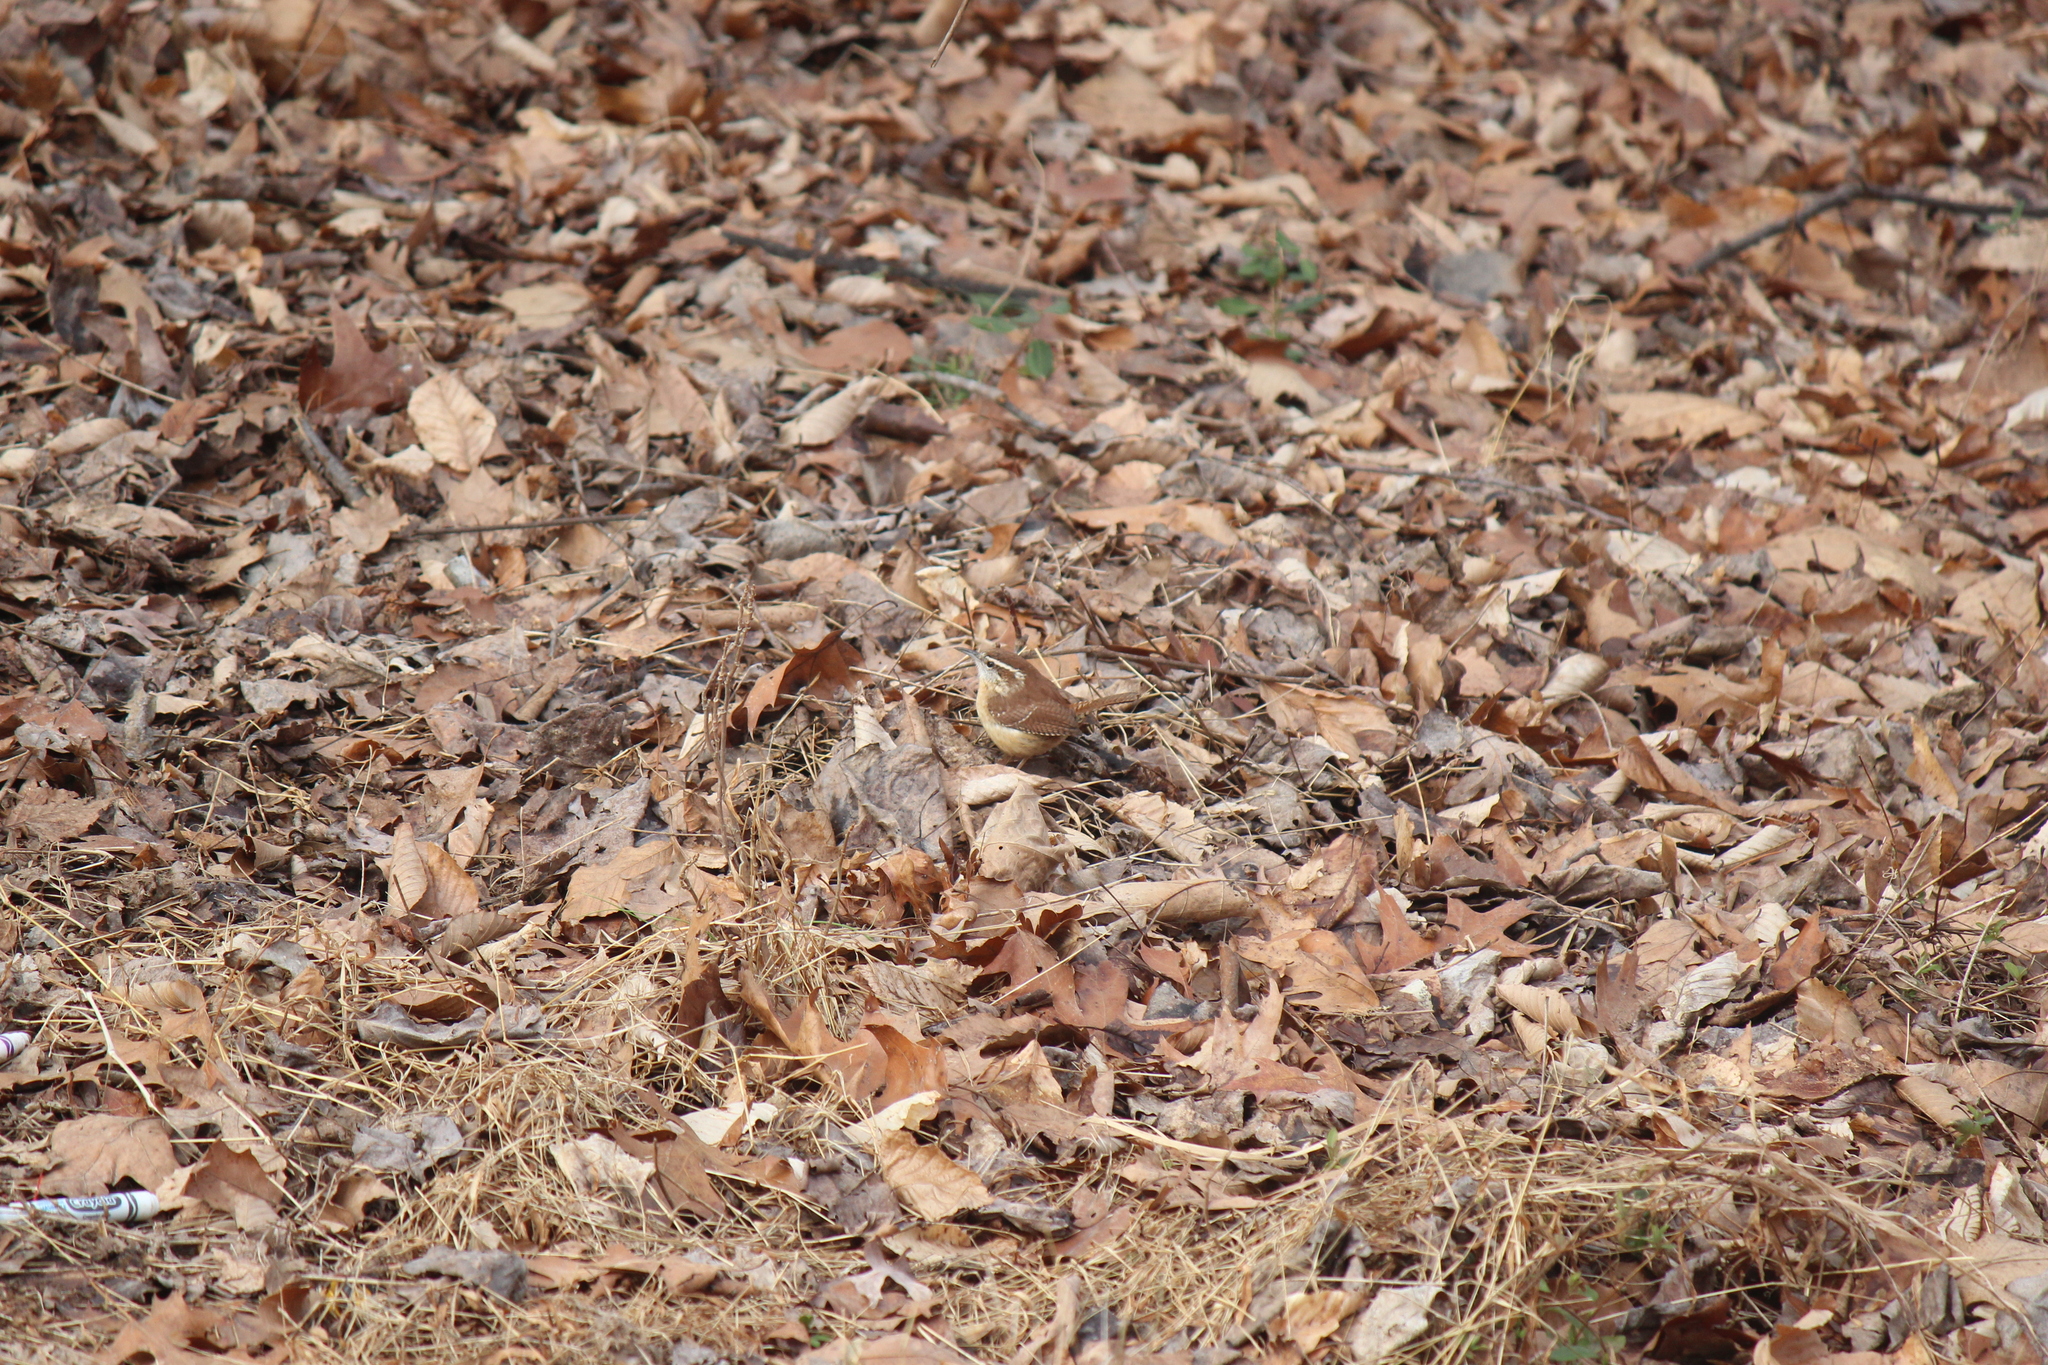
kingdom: Animalia
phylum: Chordata
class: Aves
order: Passeriformes
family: Troglodytidae
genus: Thryothorus
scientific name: Thryothorus ludovicianus
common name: Carolina wren
